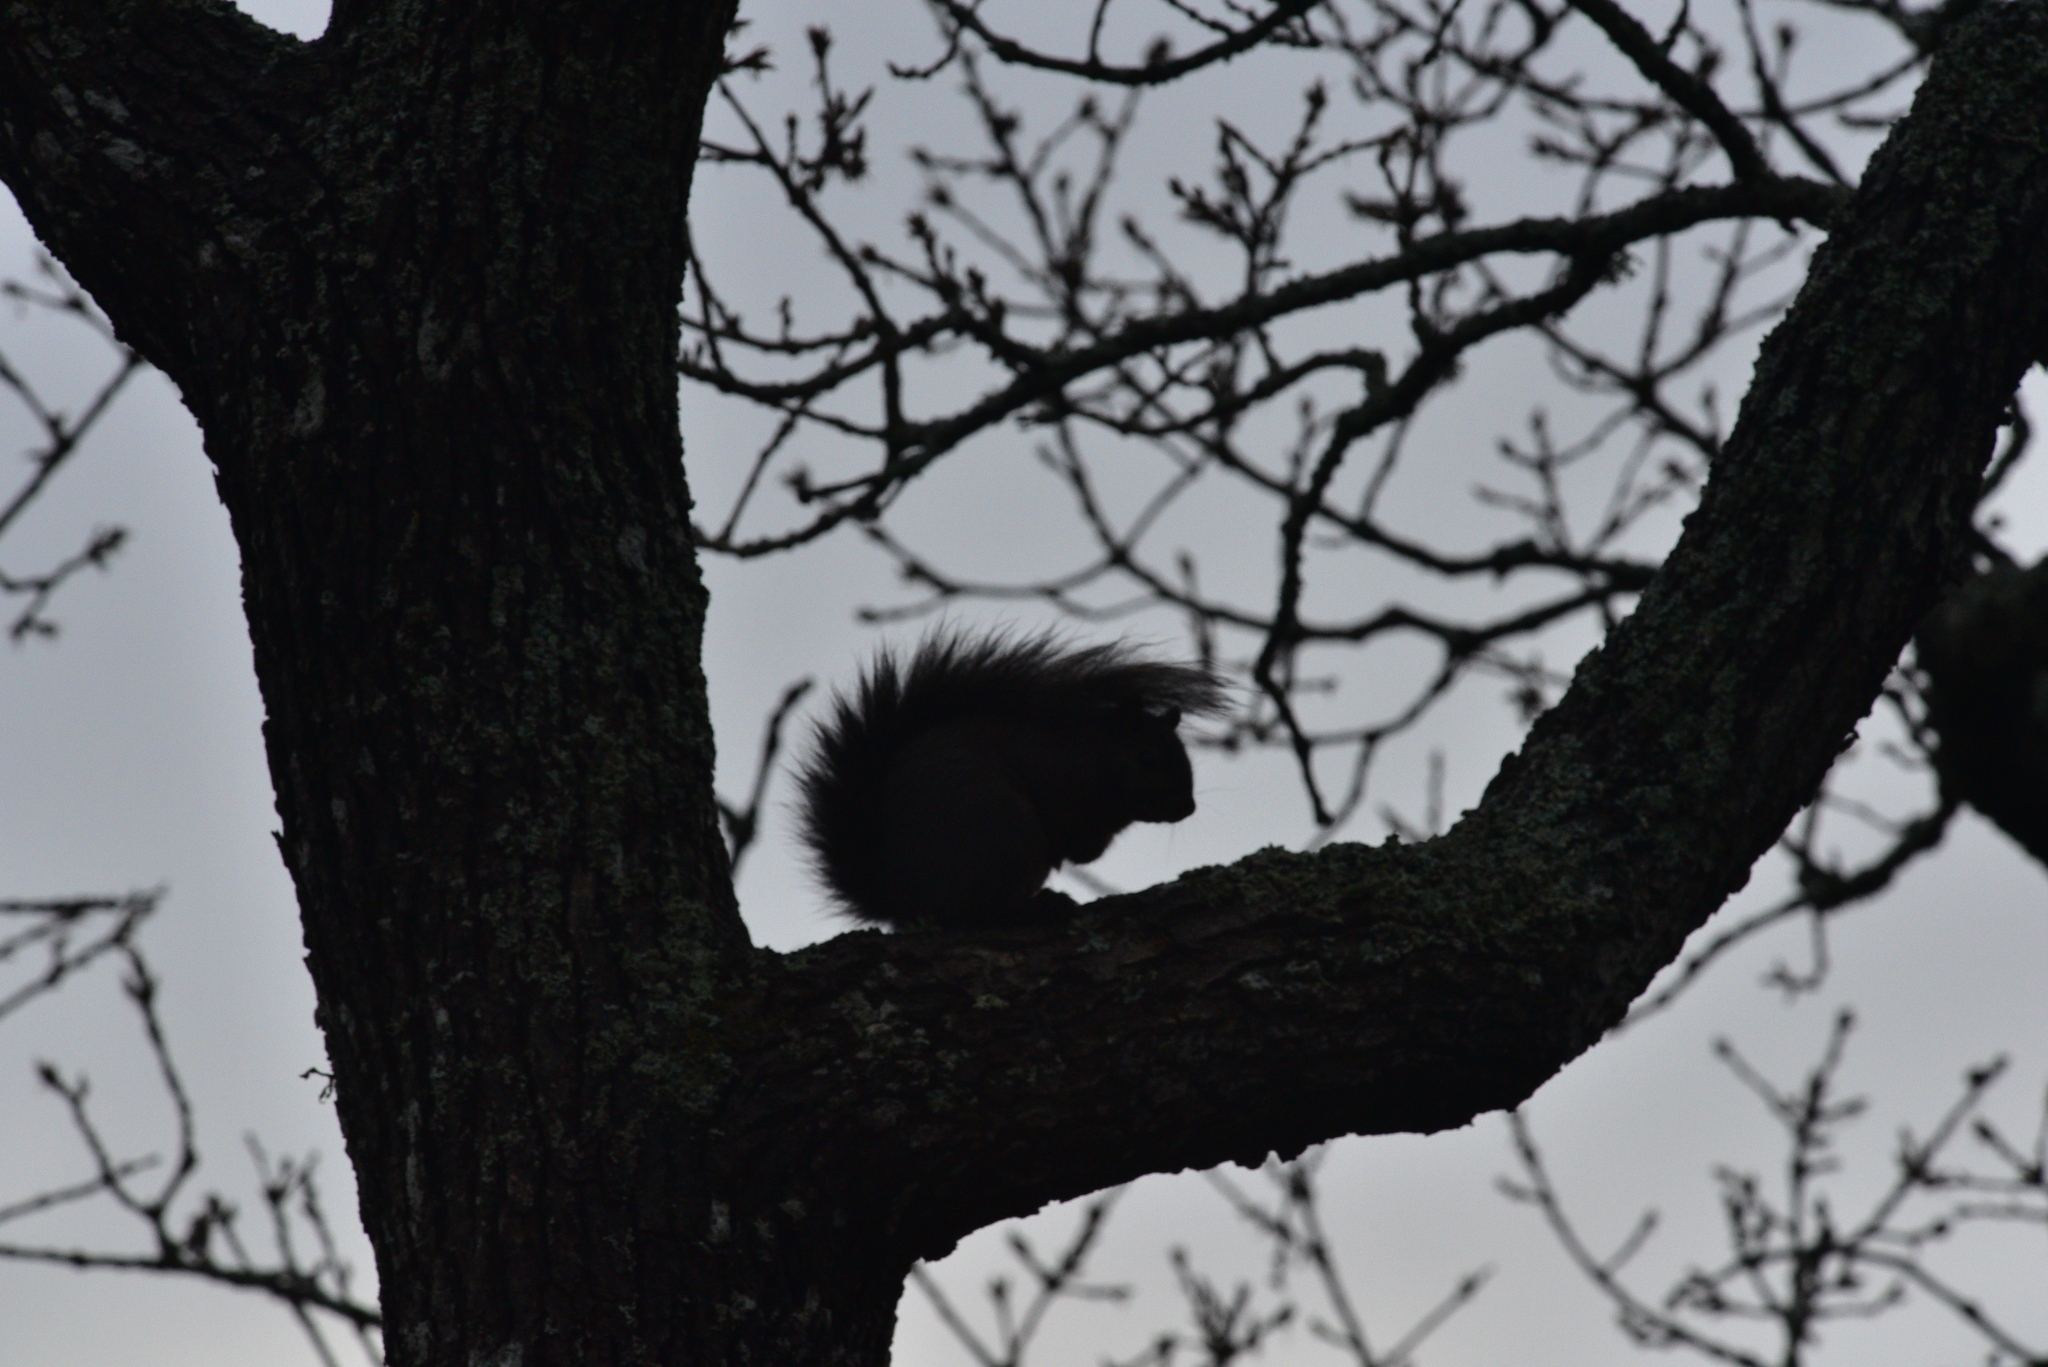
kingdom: Animalia
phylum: Chordata
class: Mammalia
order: Rodentia
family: Sciuridae
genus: Sciurus
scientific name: Sciurus carolinensis
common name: Eastern gray squirrel
